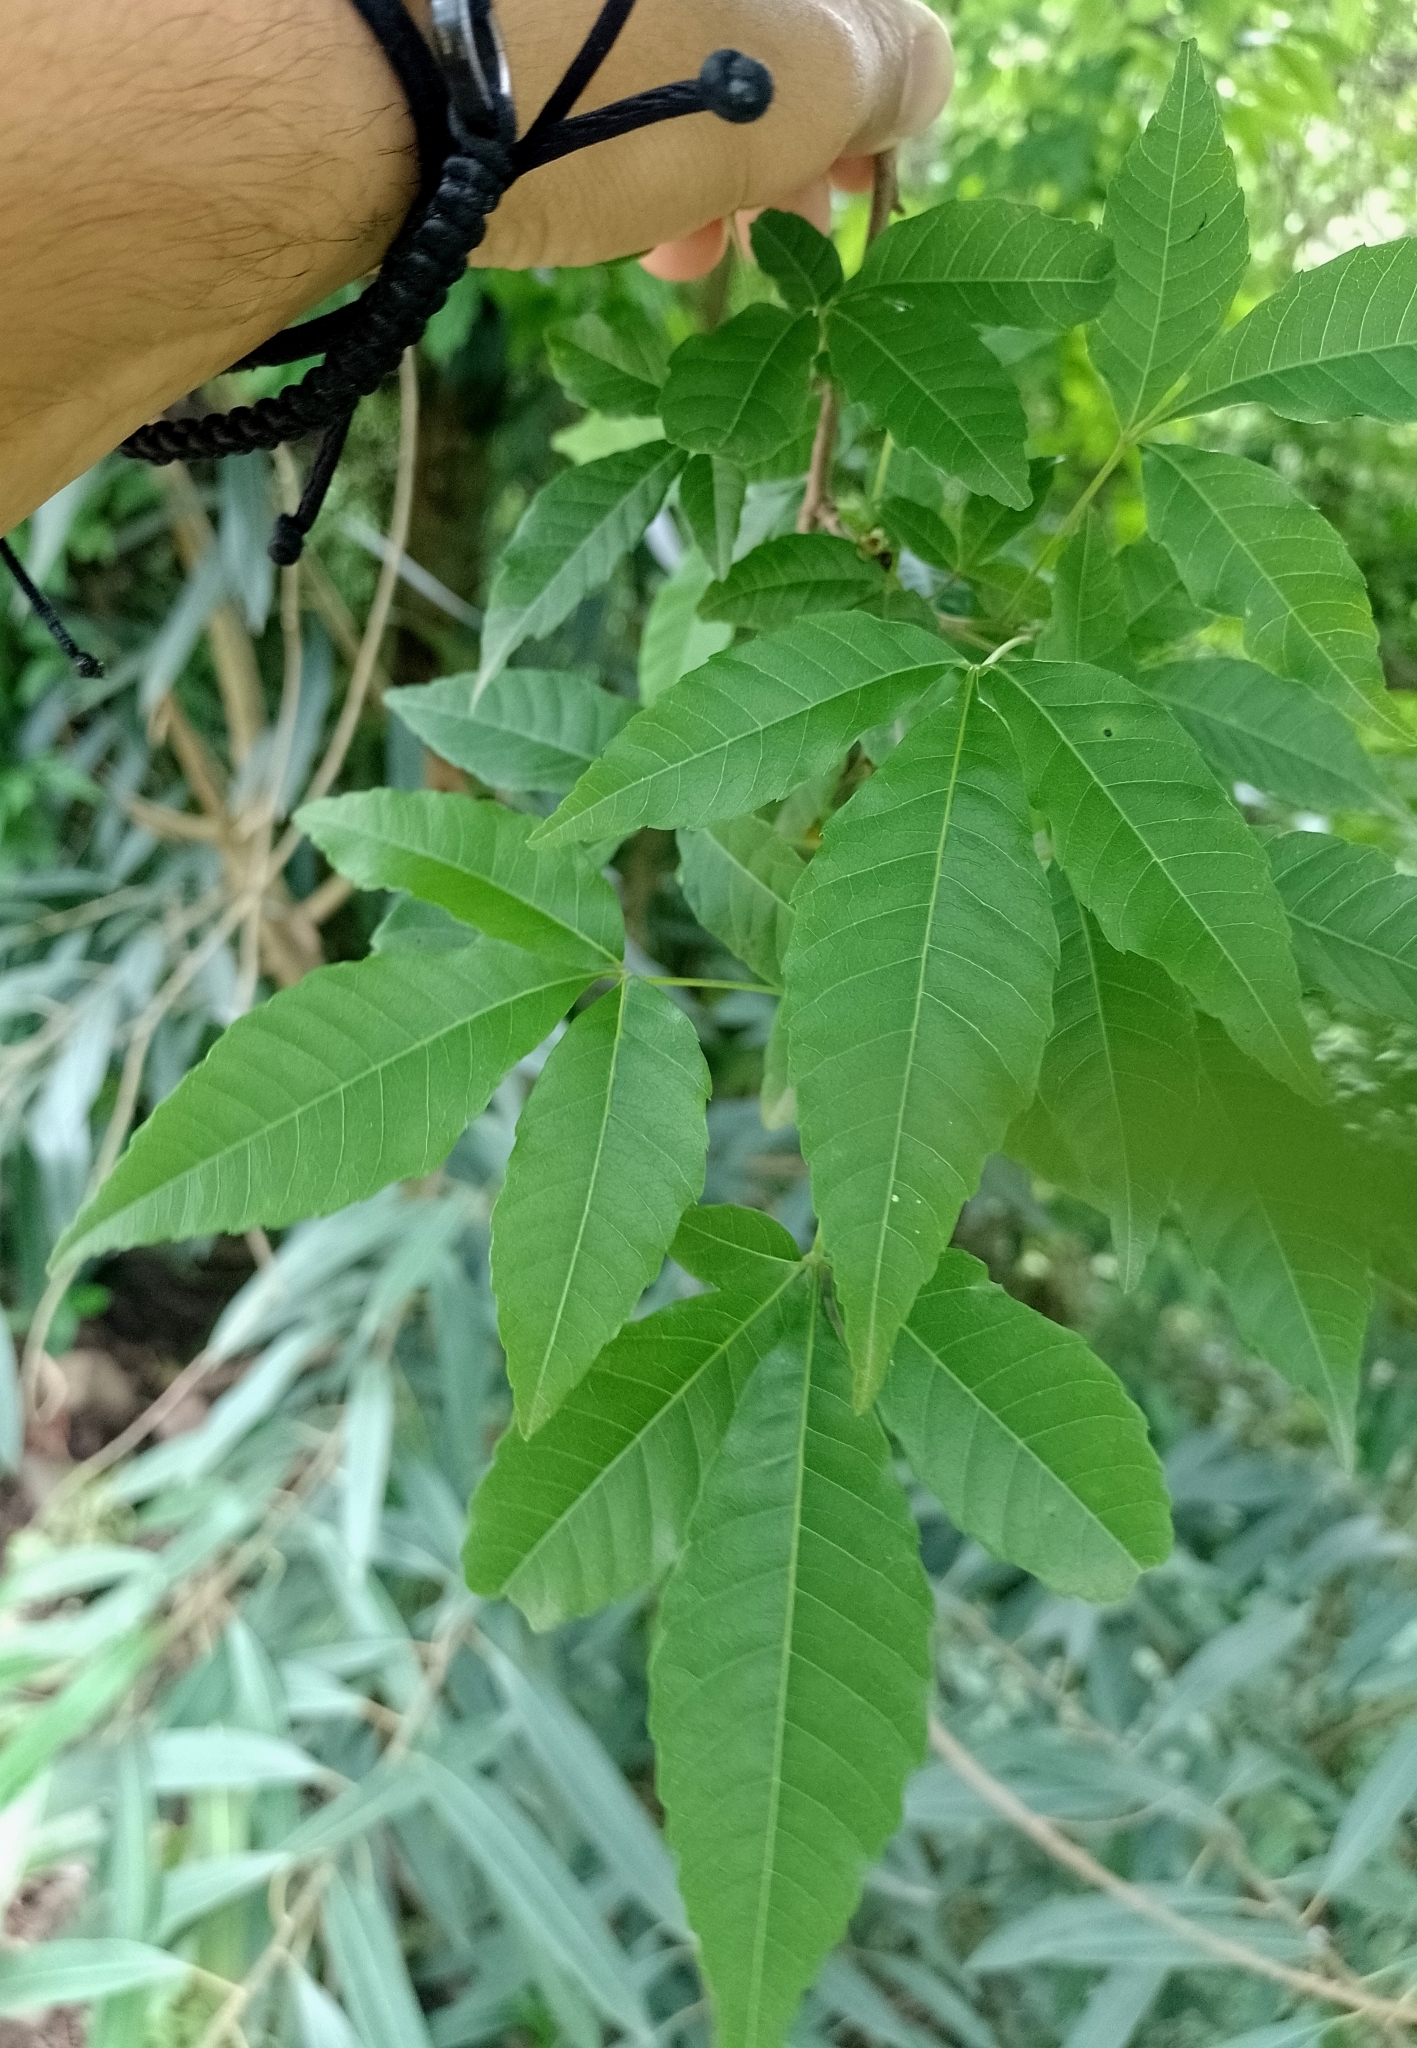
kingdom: Plantae
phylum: Tracheophyta
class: Magnoliopsida
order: Sapindales
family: Sapindaceae
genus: Allophylus
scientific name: Allophylus edulis
